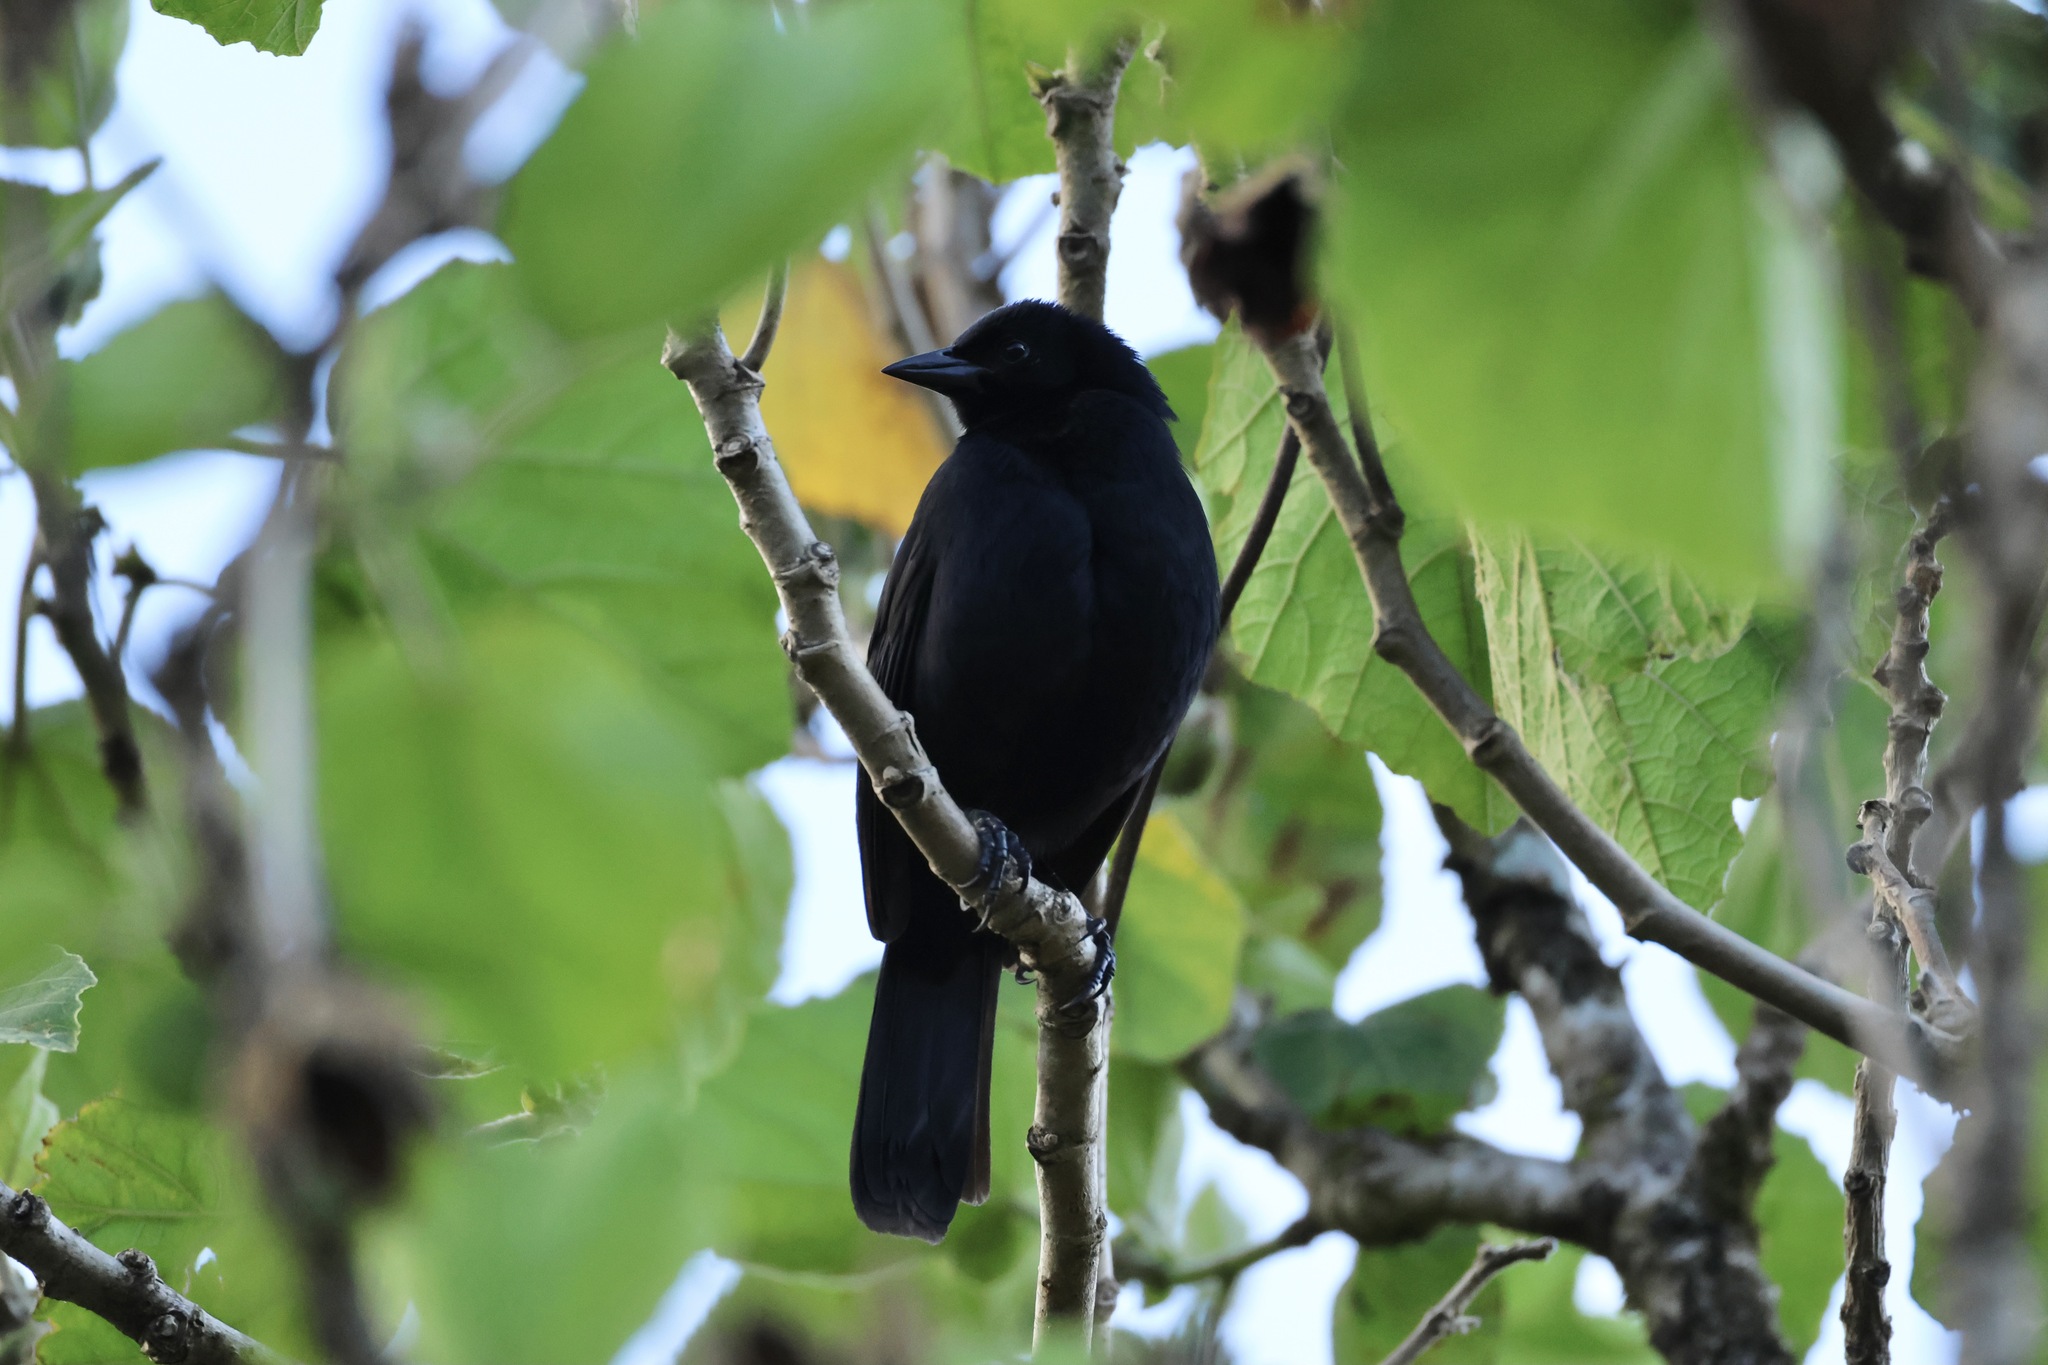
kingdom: Animalia
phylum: Chordata
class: Aves
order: Passeriformes
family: Icteridae
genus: Dives
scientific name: Dives dives
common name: Melodious blackbird
